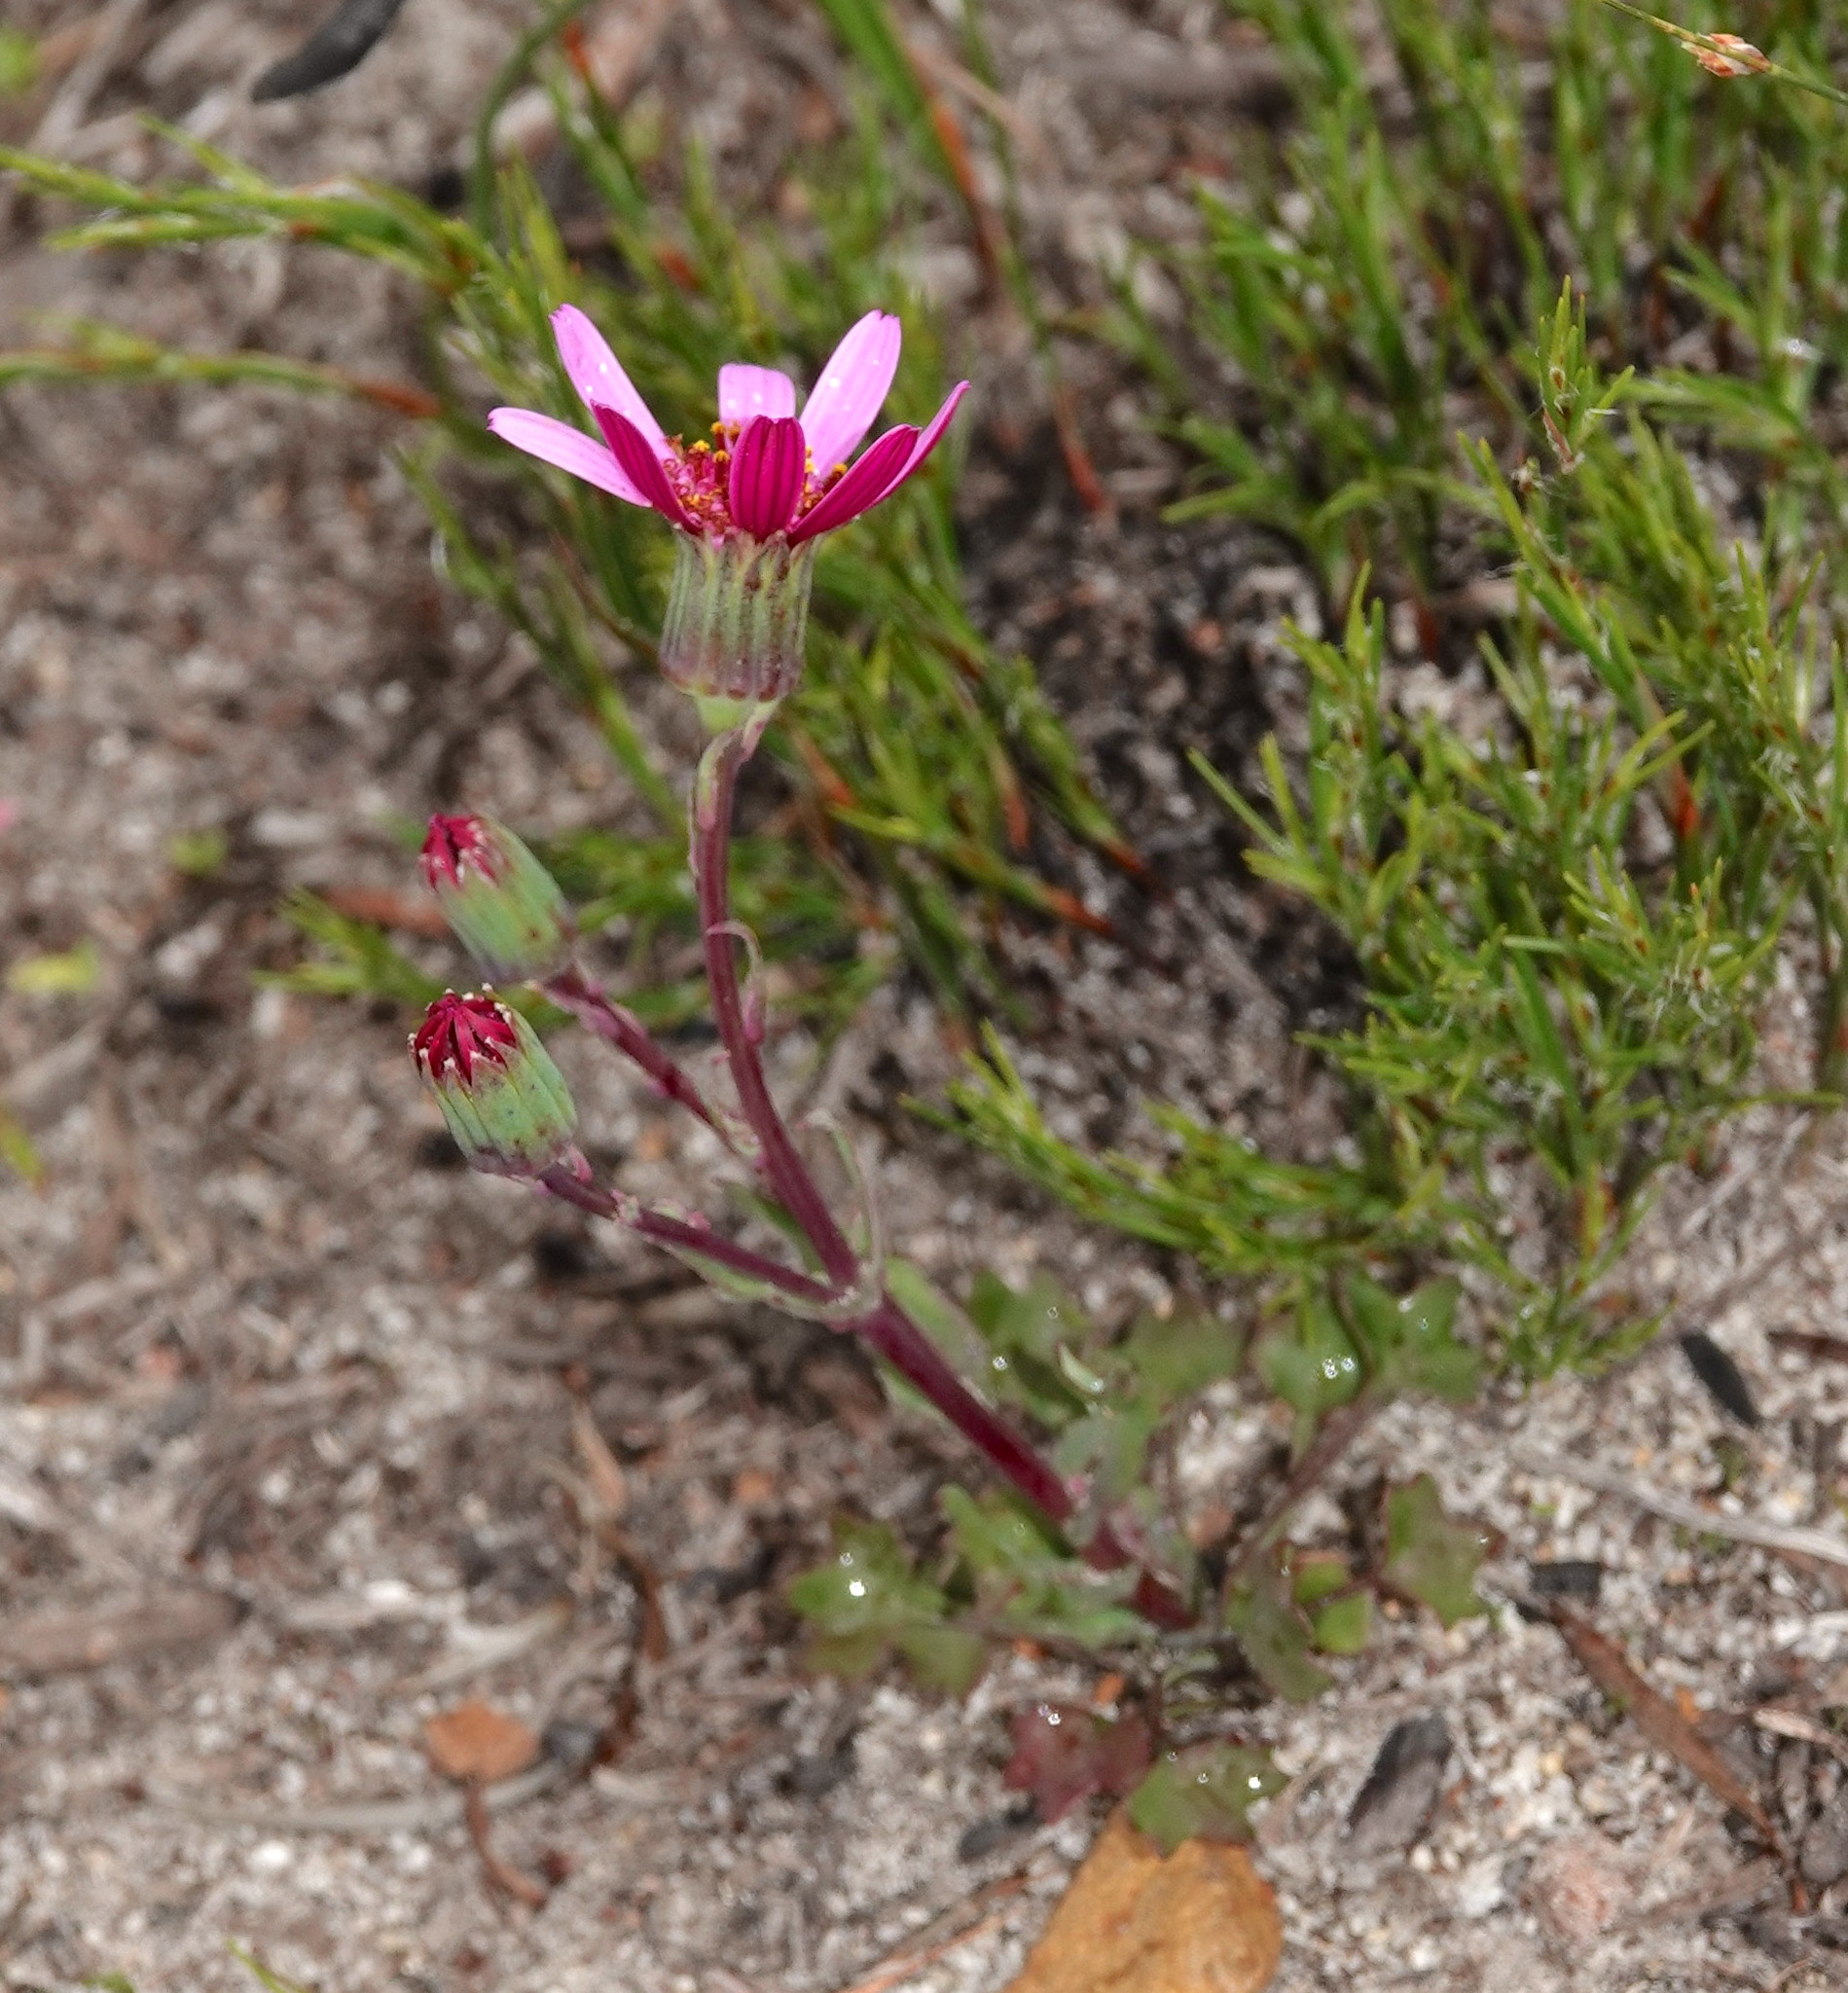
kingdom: Plantae
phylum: Tracheophyta
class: Magnoliopsida
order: Asterales
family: Asteraceae
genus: Senecio
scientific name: Senecio cymbalariifolius
